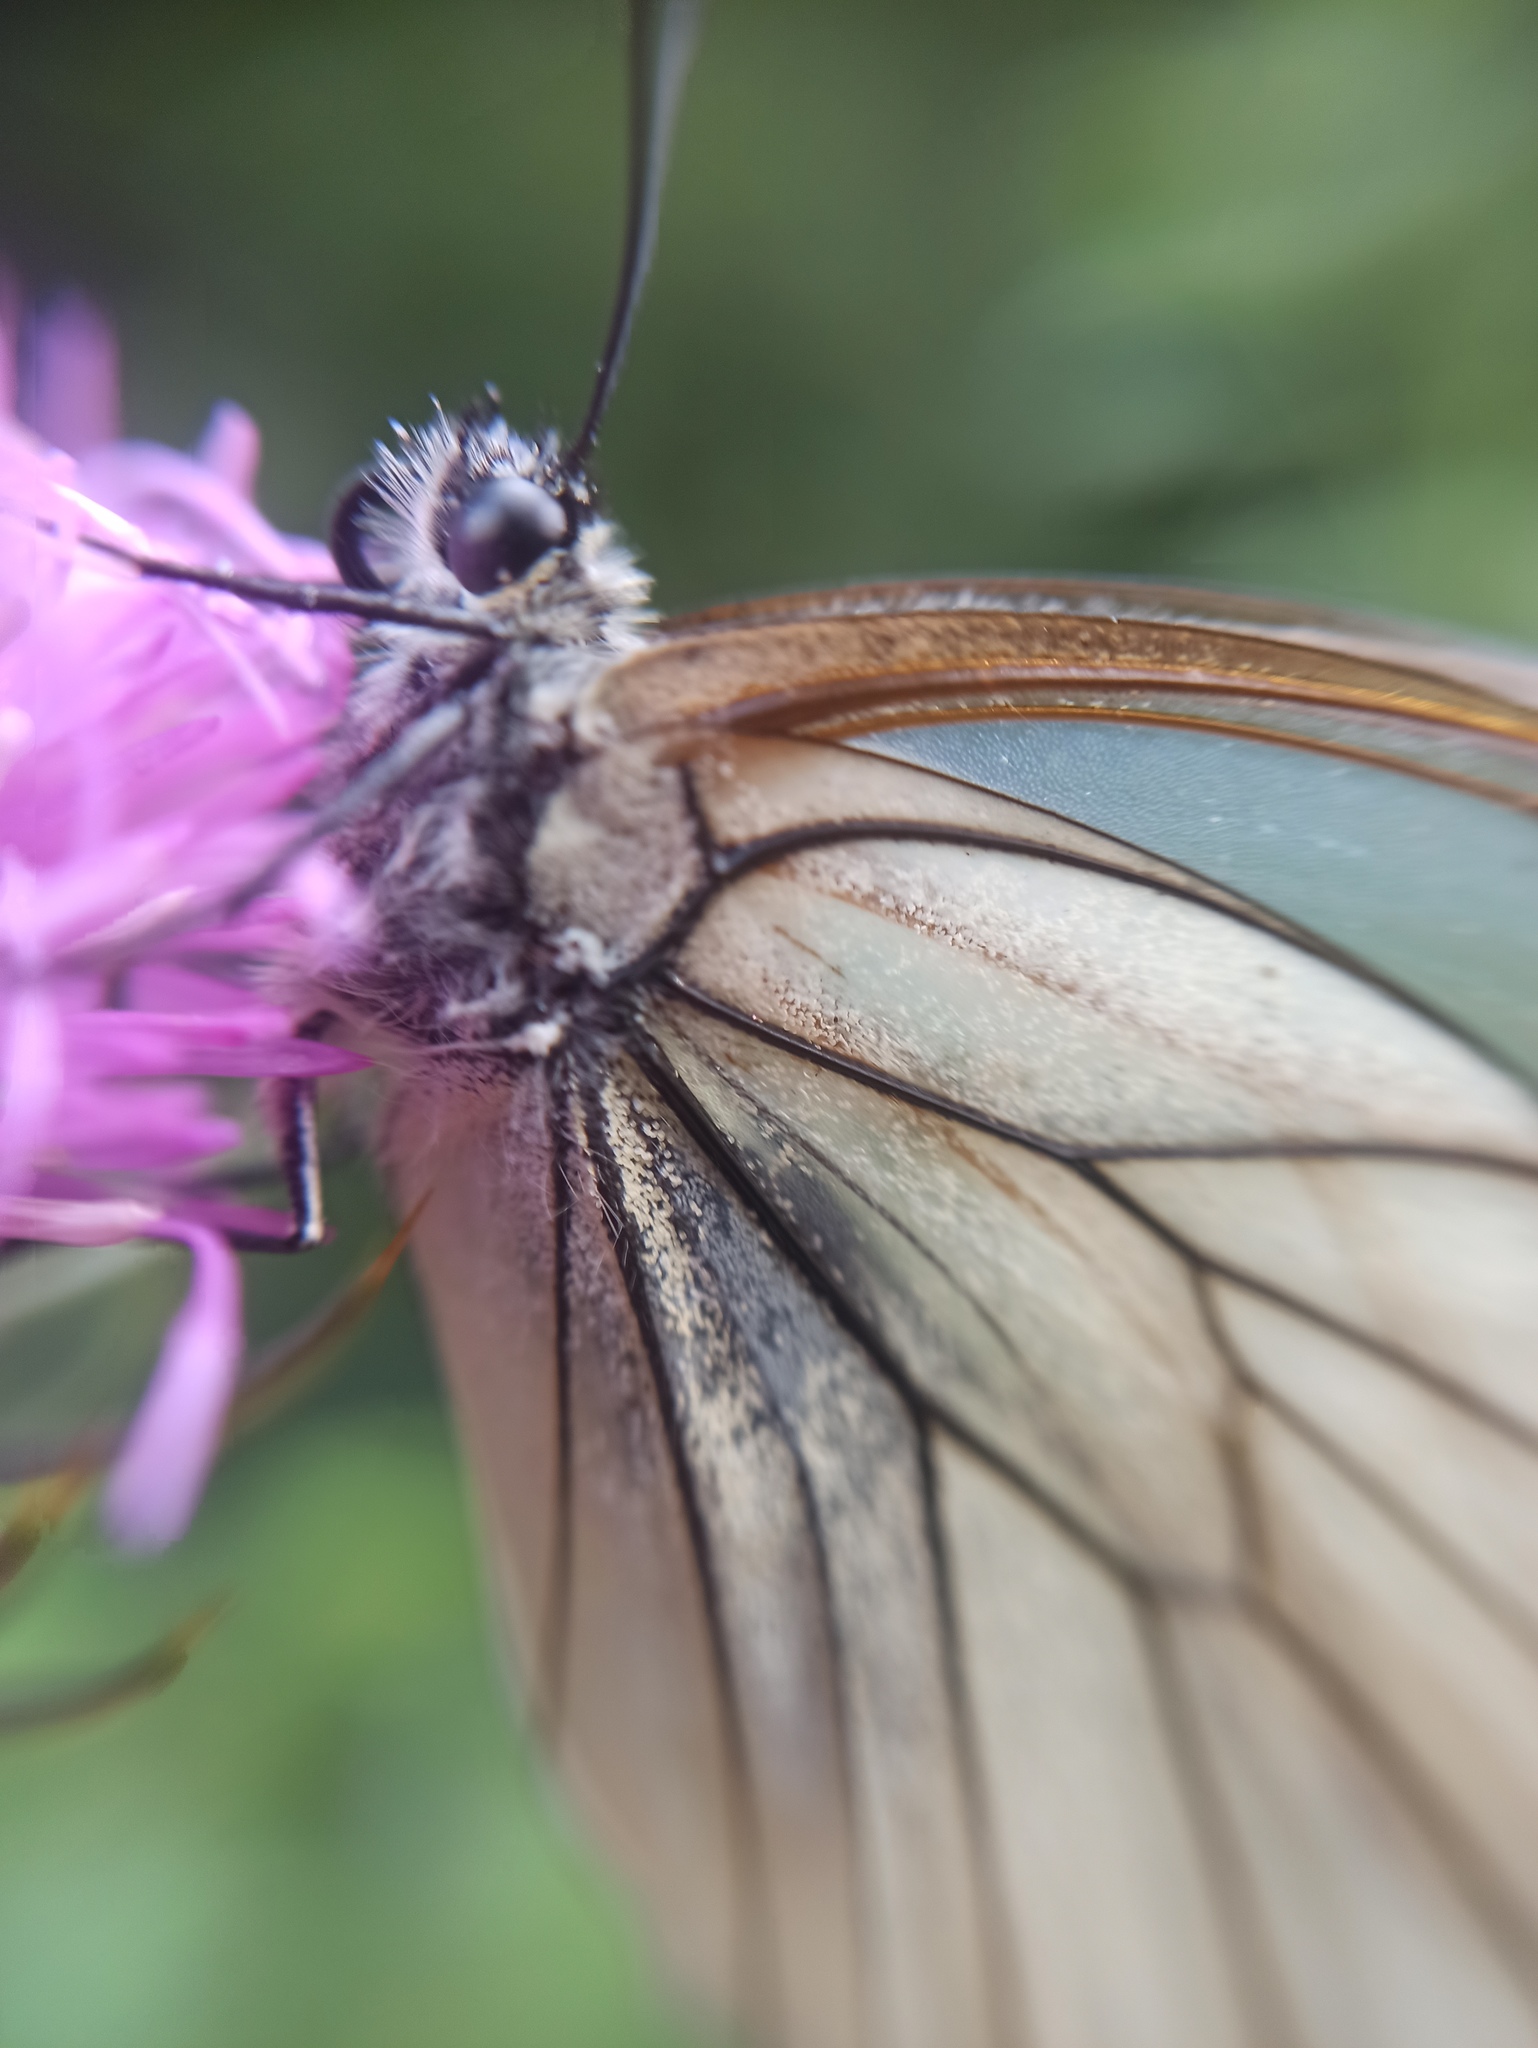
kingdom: Animalia
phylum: Arthropoda
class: Insecta
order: Lepidoptera
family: Pieridae
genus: Aporia
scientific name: Aporia crataegi
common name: Black-veined white
